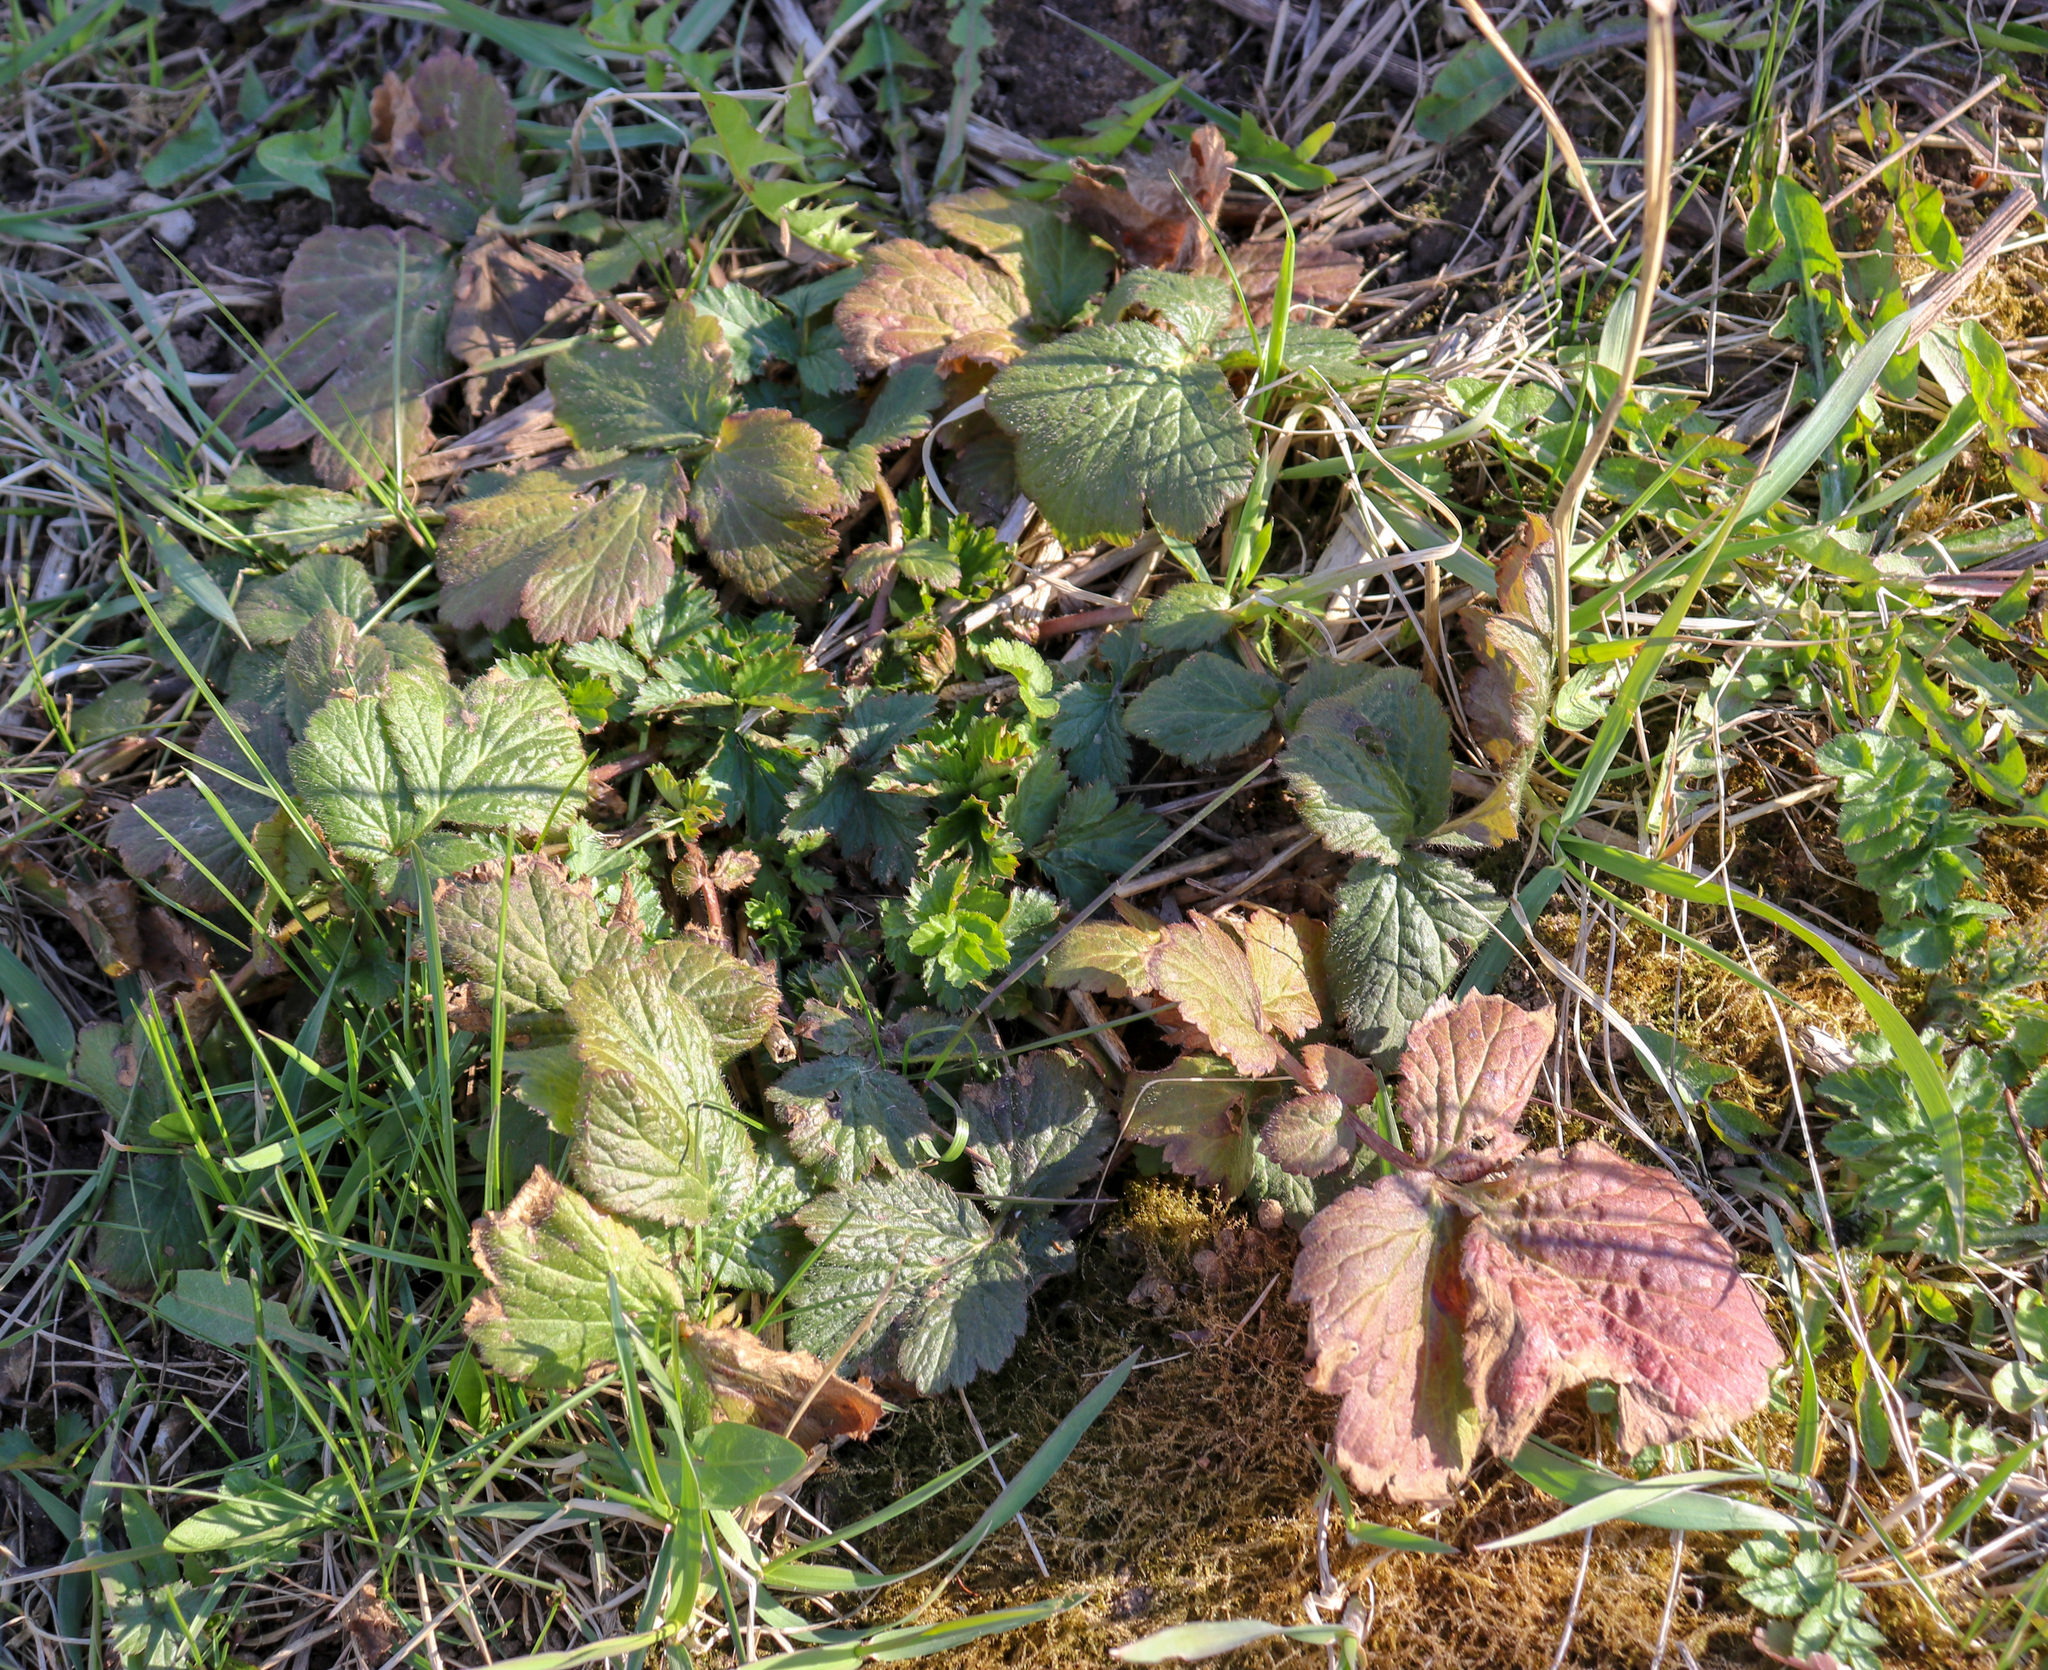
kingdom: Plantae
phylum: Tracheophyta
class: Magnoliopsida
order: Rosales
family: Rosaceae
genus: Geum
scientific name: Geum
